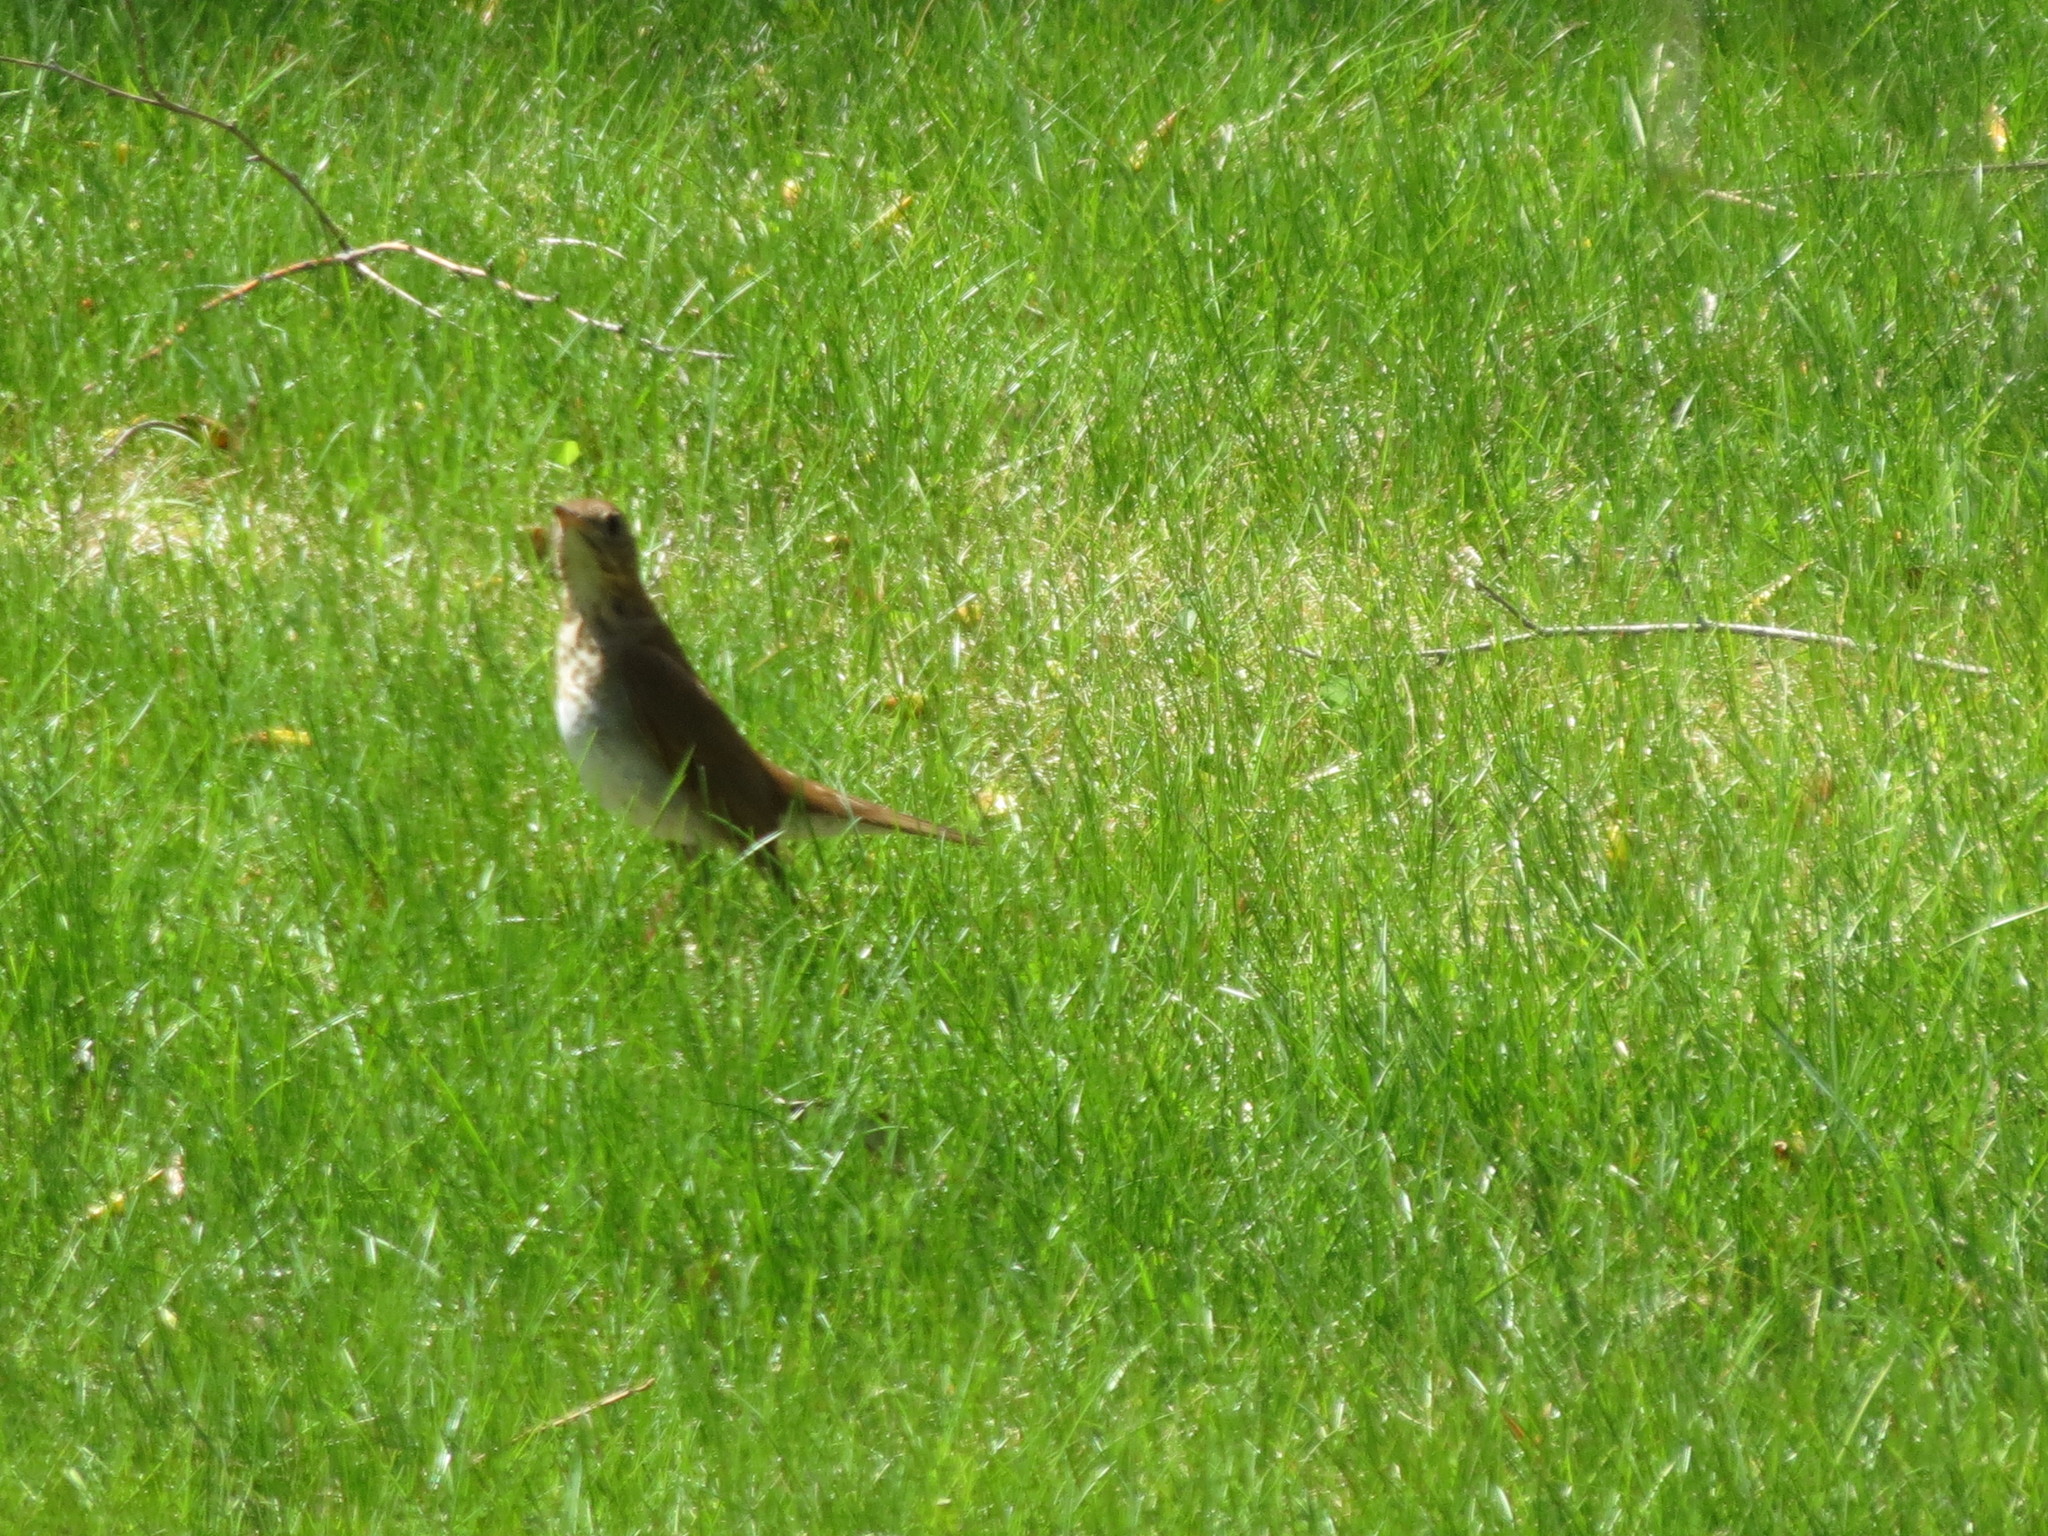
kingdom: Animalia
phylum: Chordata
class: Aves
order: Passeriformes
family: Turdidae
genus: Catharus
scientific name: Catharus fuscescens
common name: Veery
